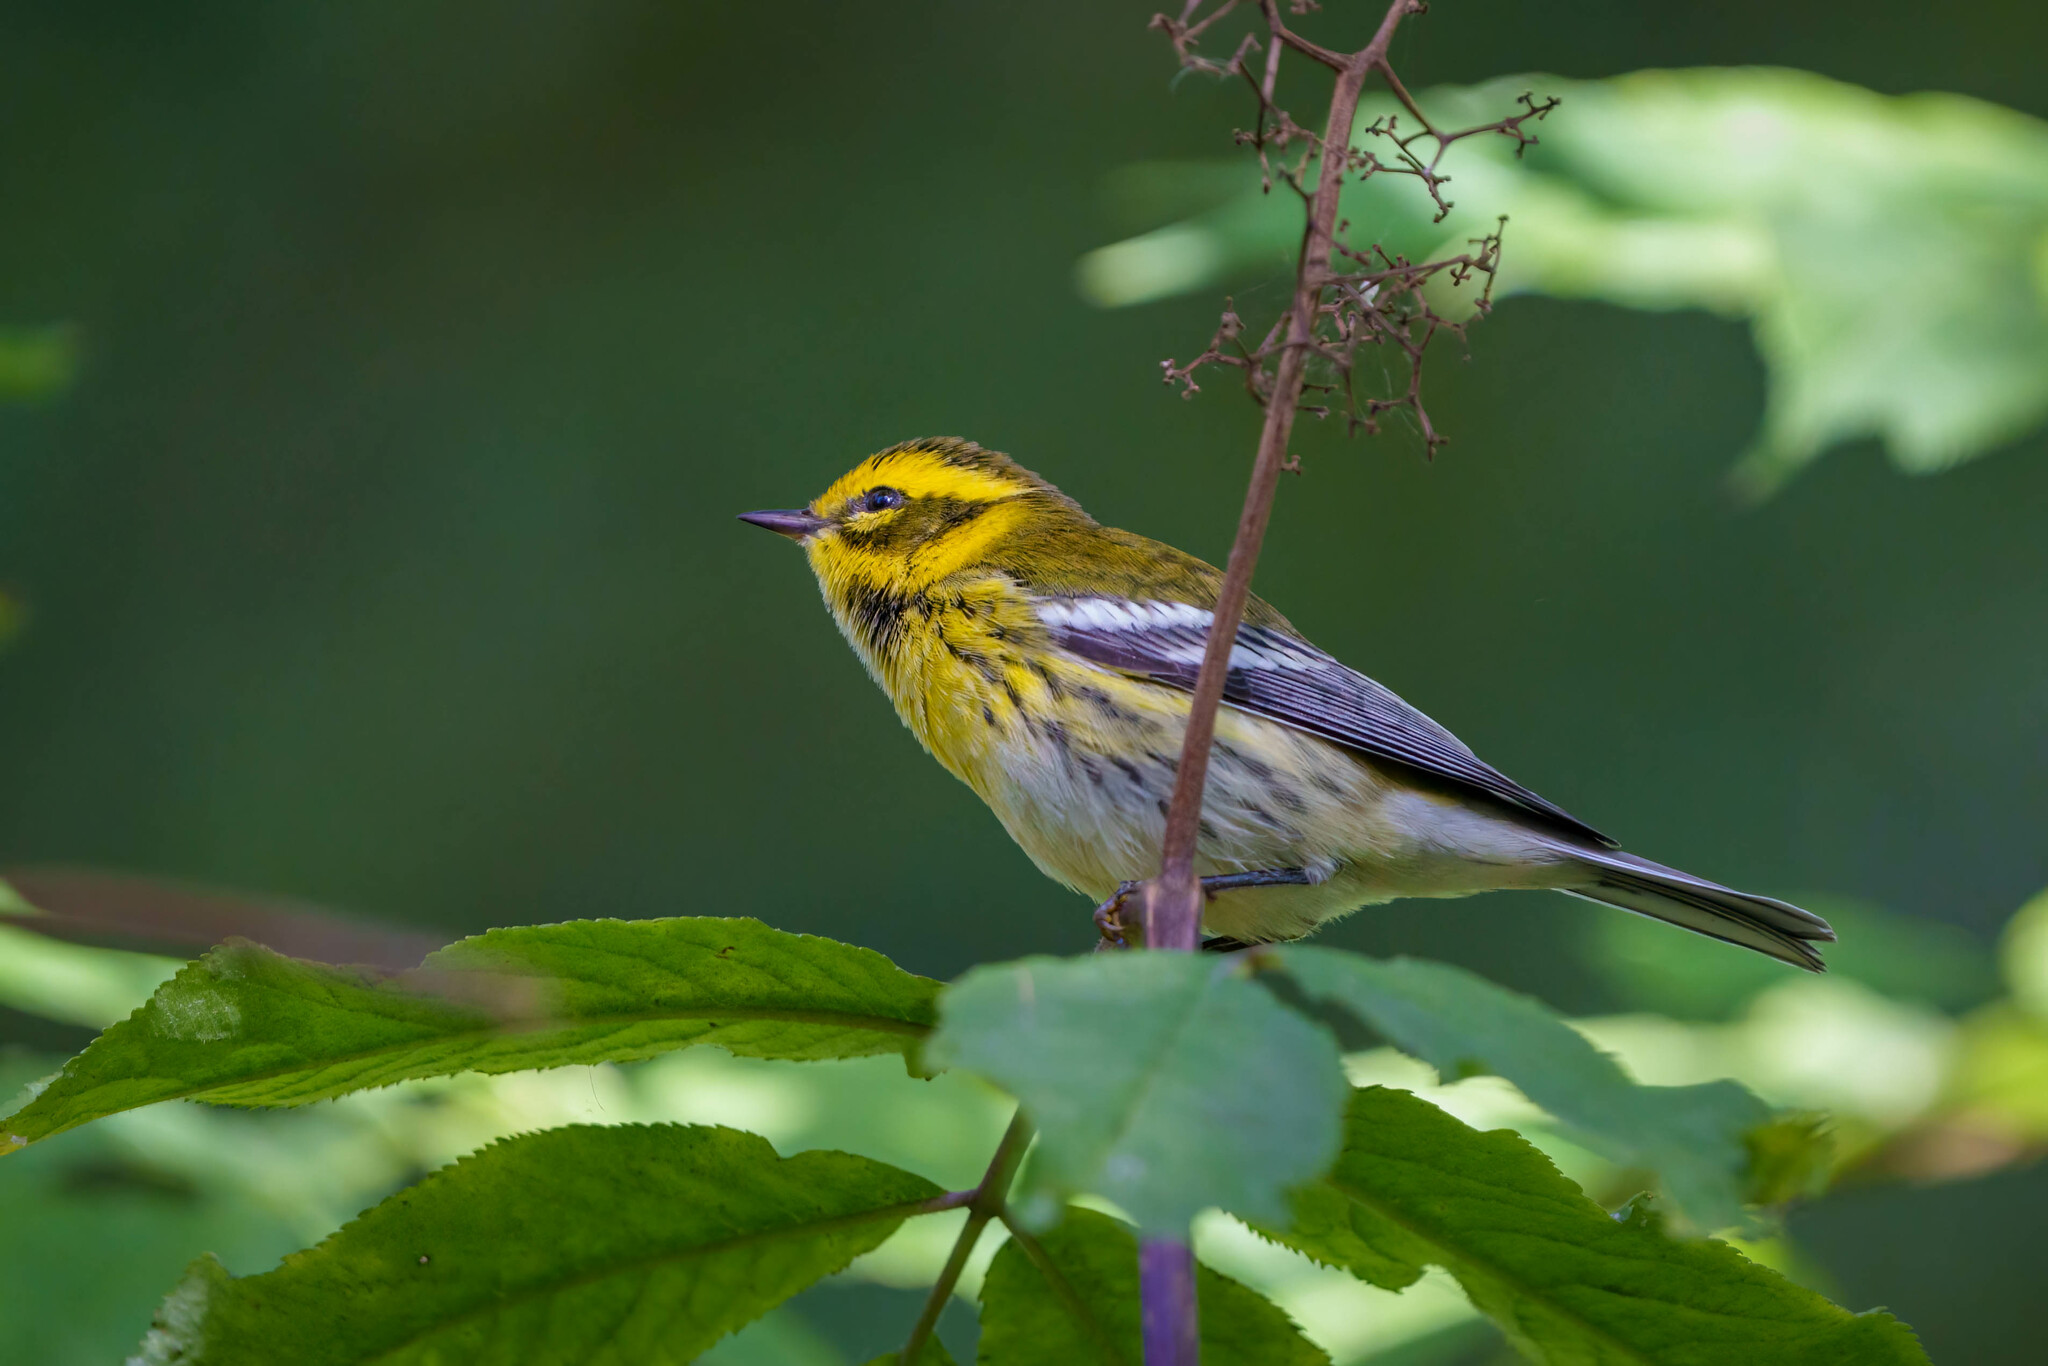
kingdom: Animalia
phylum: Chordata
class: Aves
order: Passeriformes
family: Parulidae
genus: Setophaga
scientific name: Setophaga townsendi
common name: Townsend's warbler
